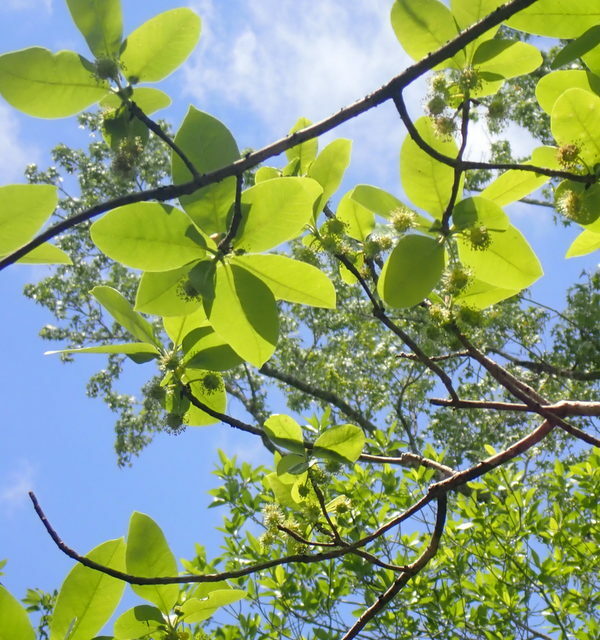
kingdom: Plantae
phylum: Tracheophyta
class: Magnoliopsida
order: Cornales
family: Nyssaceae
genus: Nyssa
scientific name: Nyssa ogeche
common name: Ogeechee tupelo
